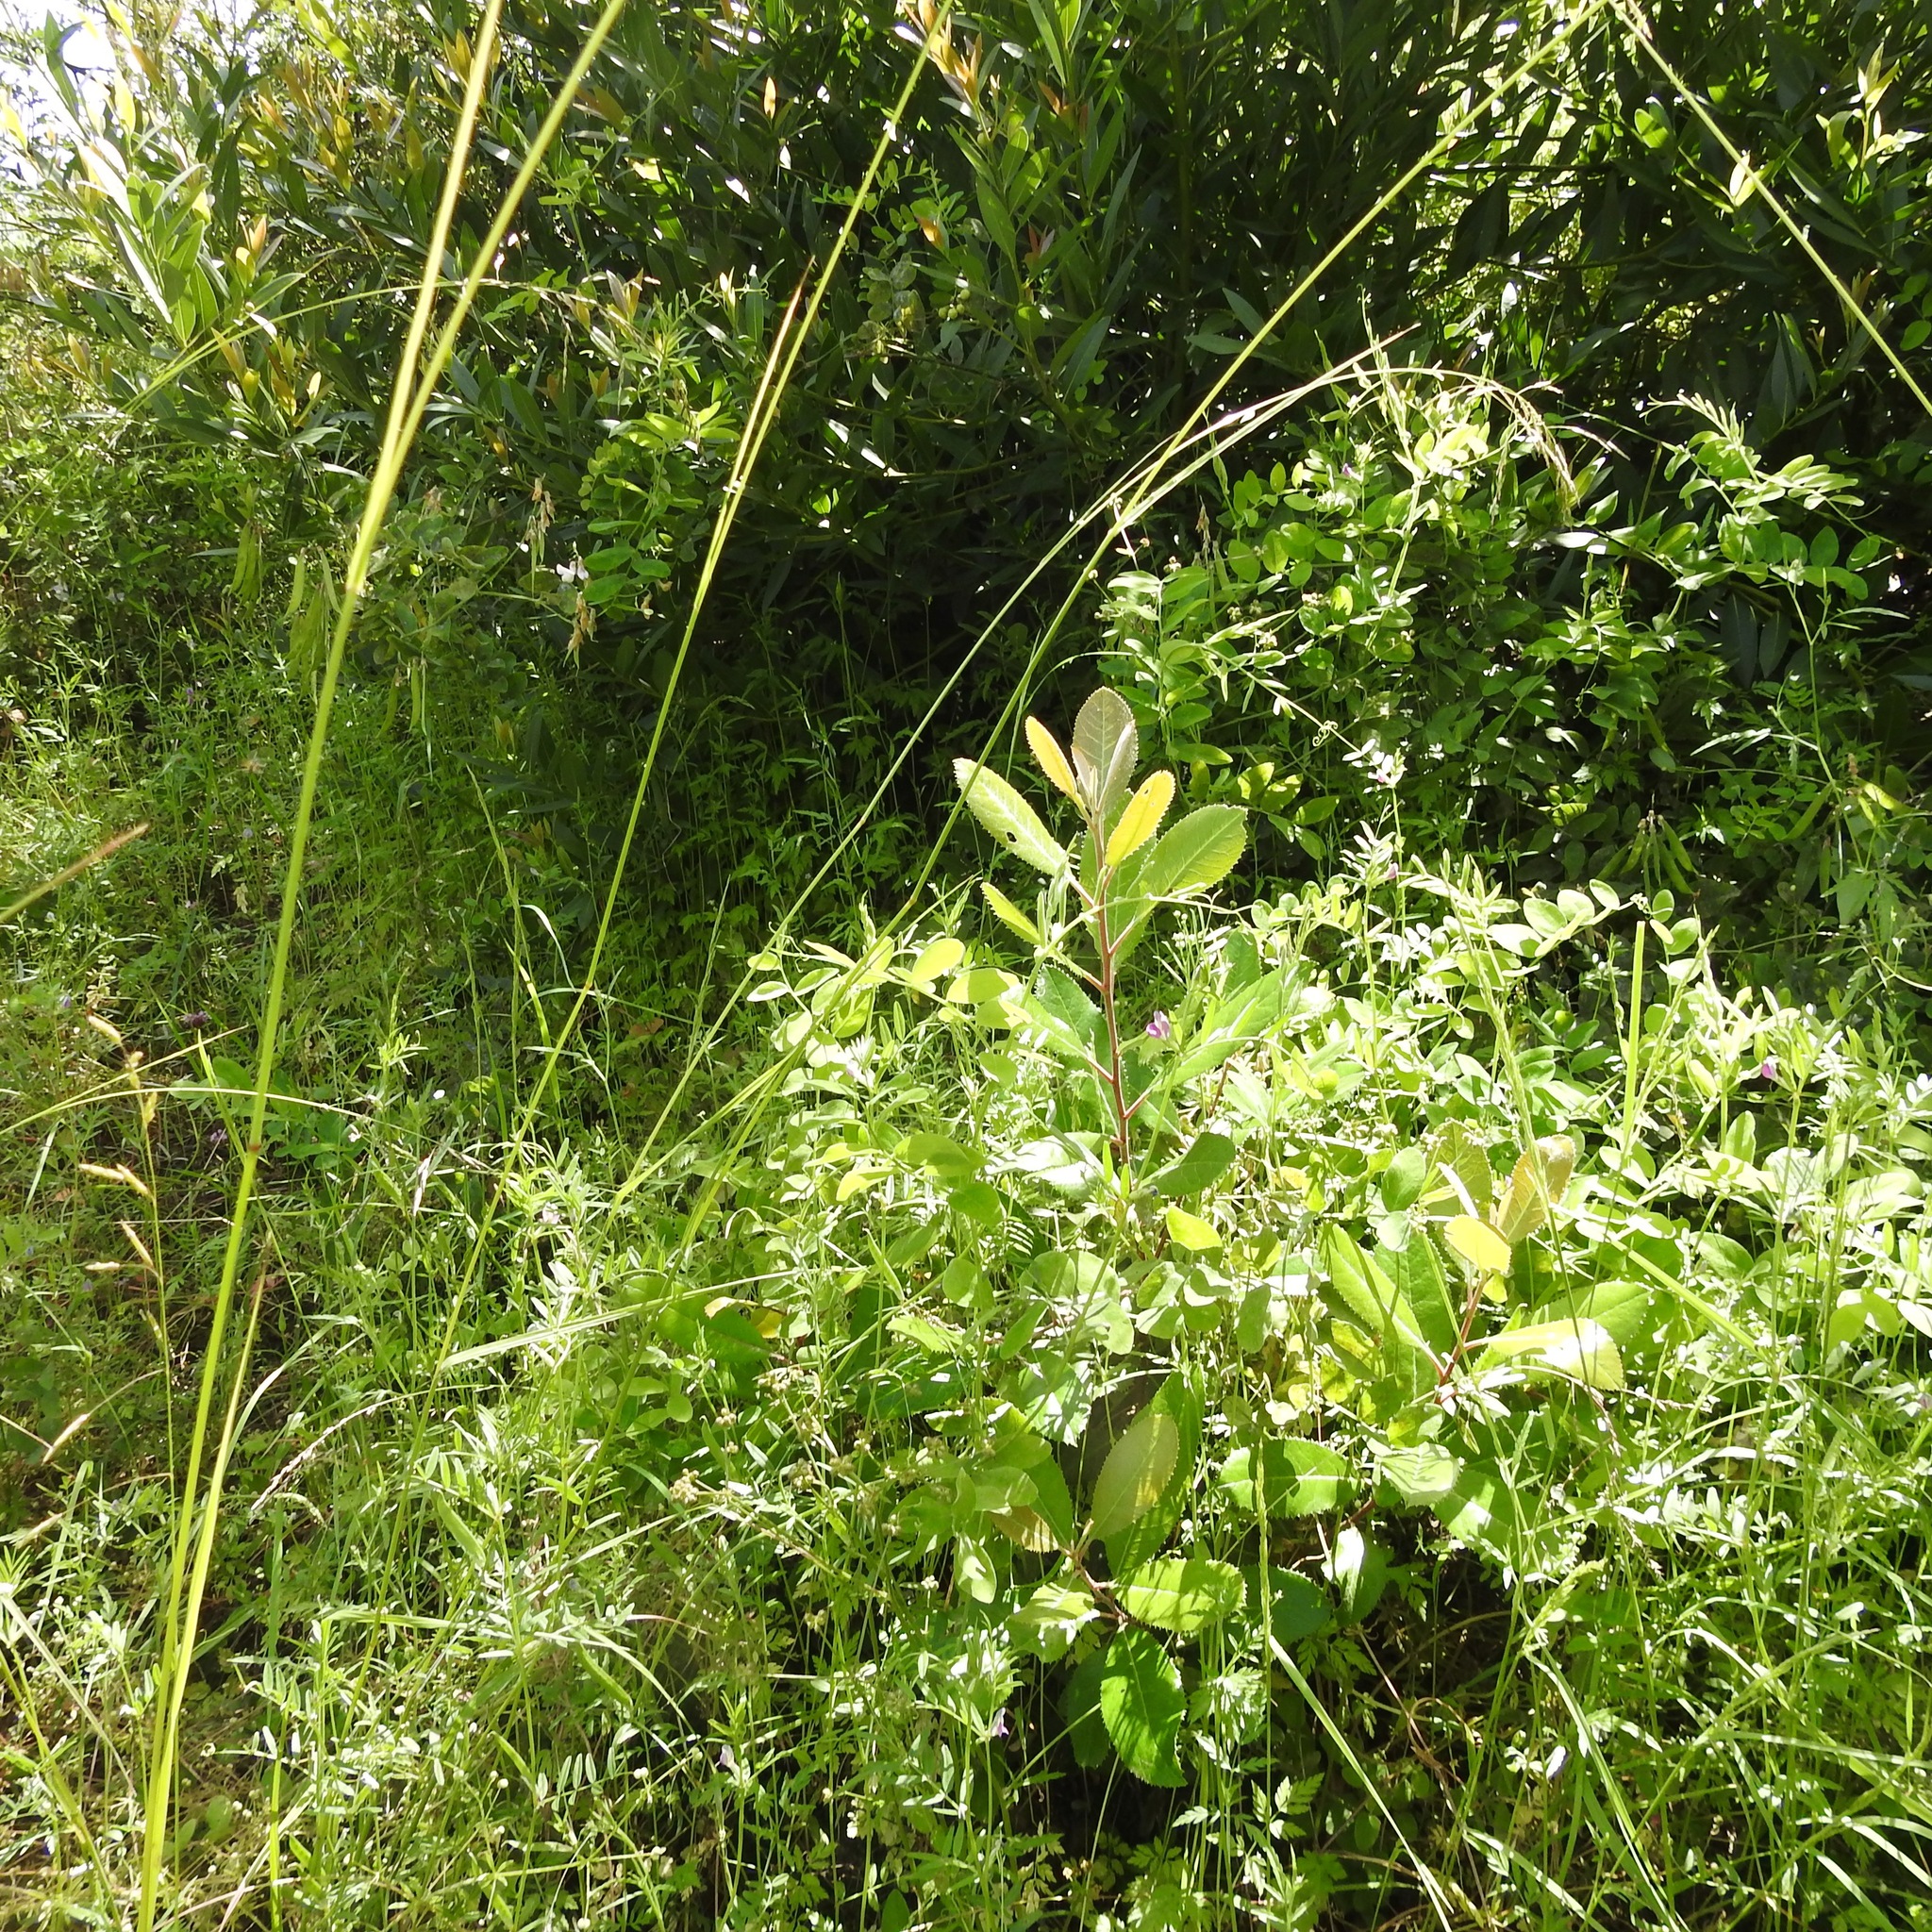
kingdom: Plantae
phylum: Tracheophyta
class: Magnoliopsida
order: Rosales
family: Rosaceae
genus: Heteromeles
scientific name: Heteromeles arbutifolia
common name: California-holly
